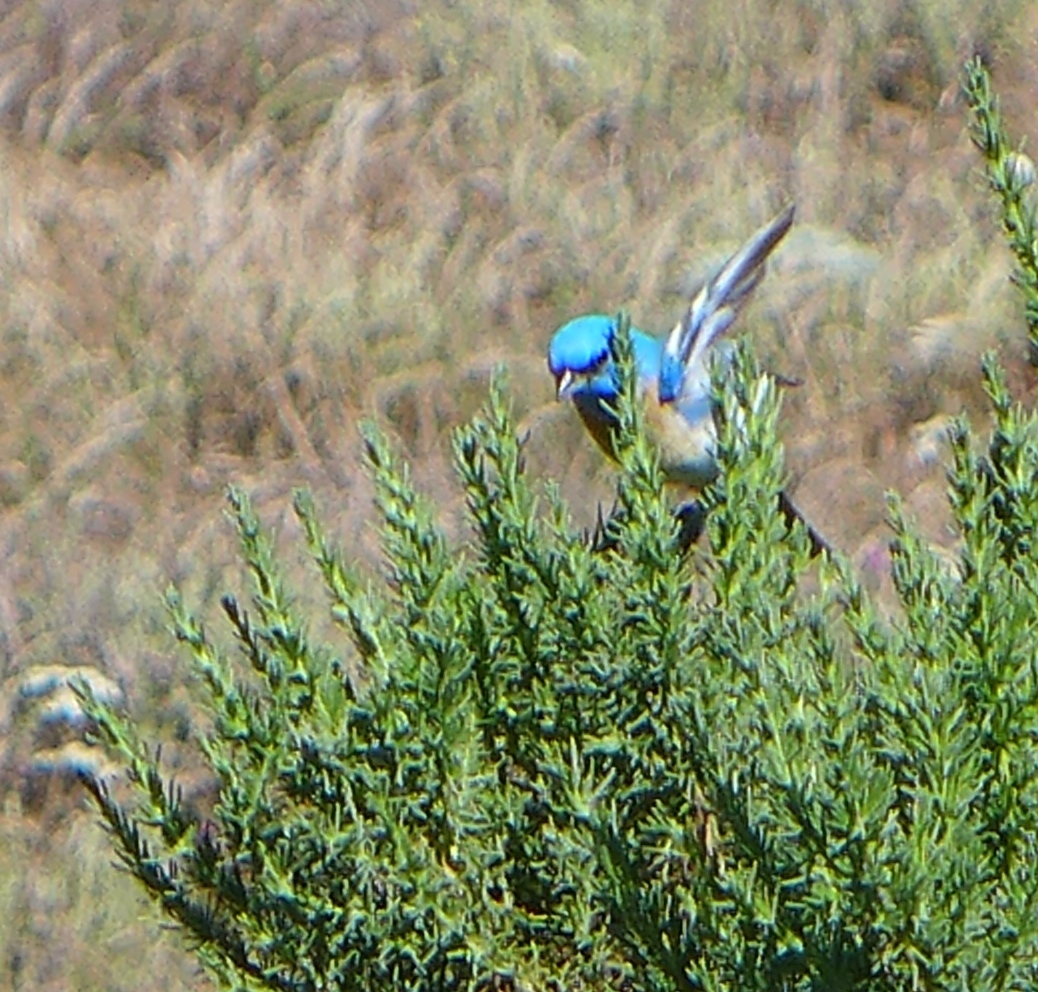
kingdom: Animalia
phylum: Chordata
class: Aves
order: Passeriformes
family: Cardinalidae
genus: Passerina
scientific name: Passerina amoena
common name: Lazuli bunting
